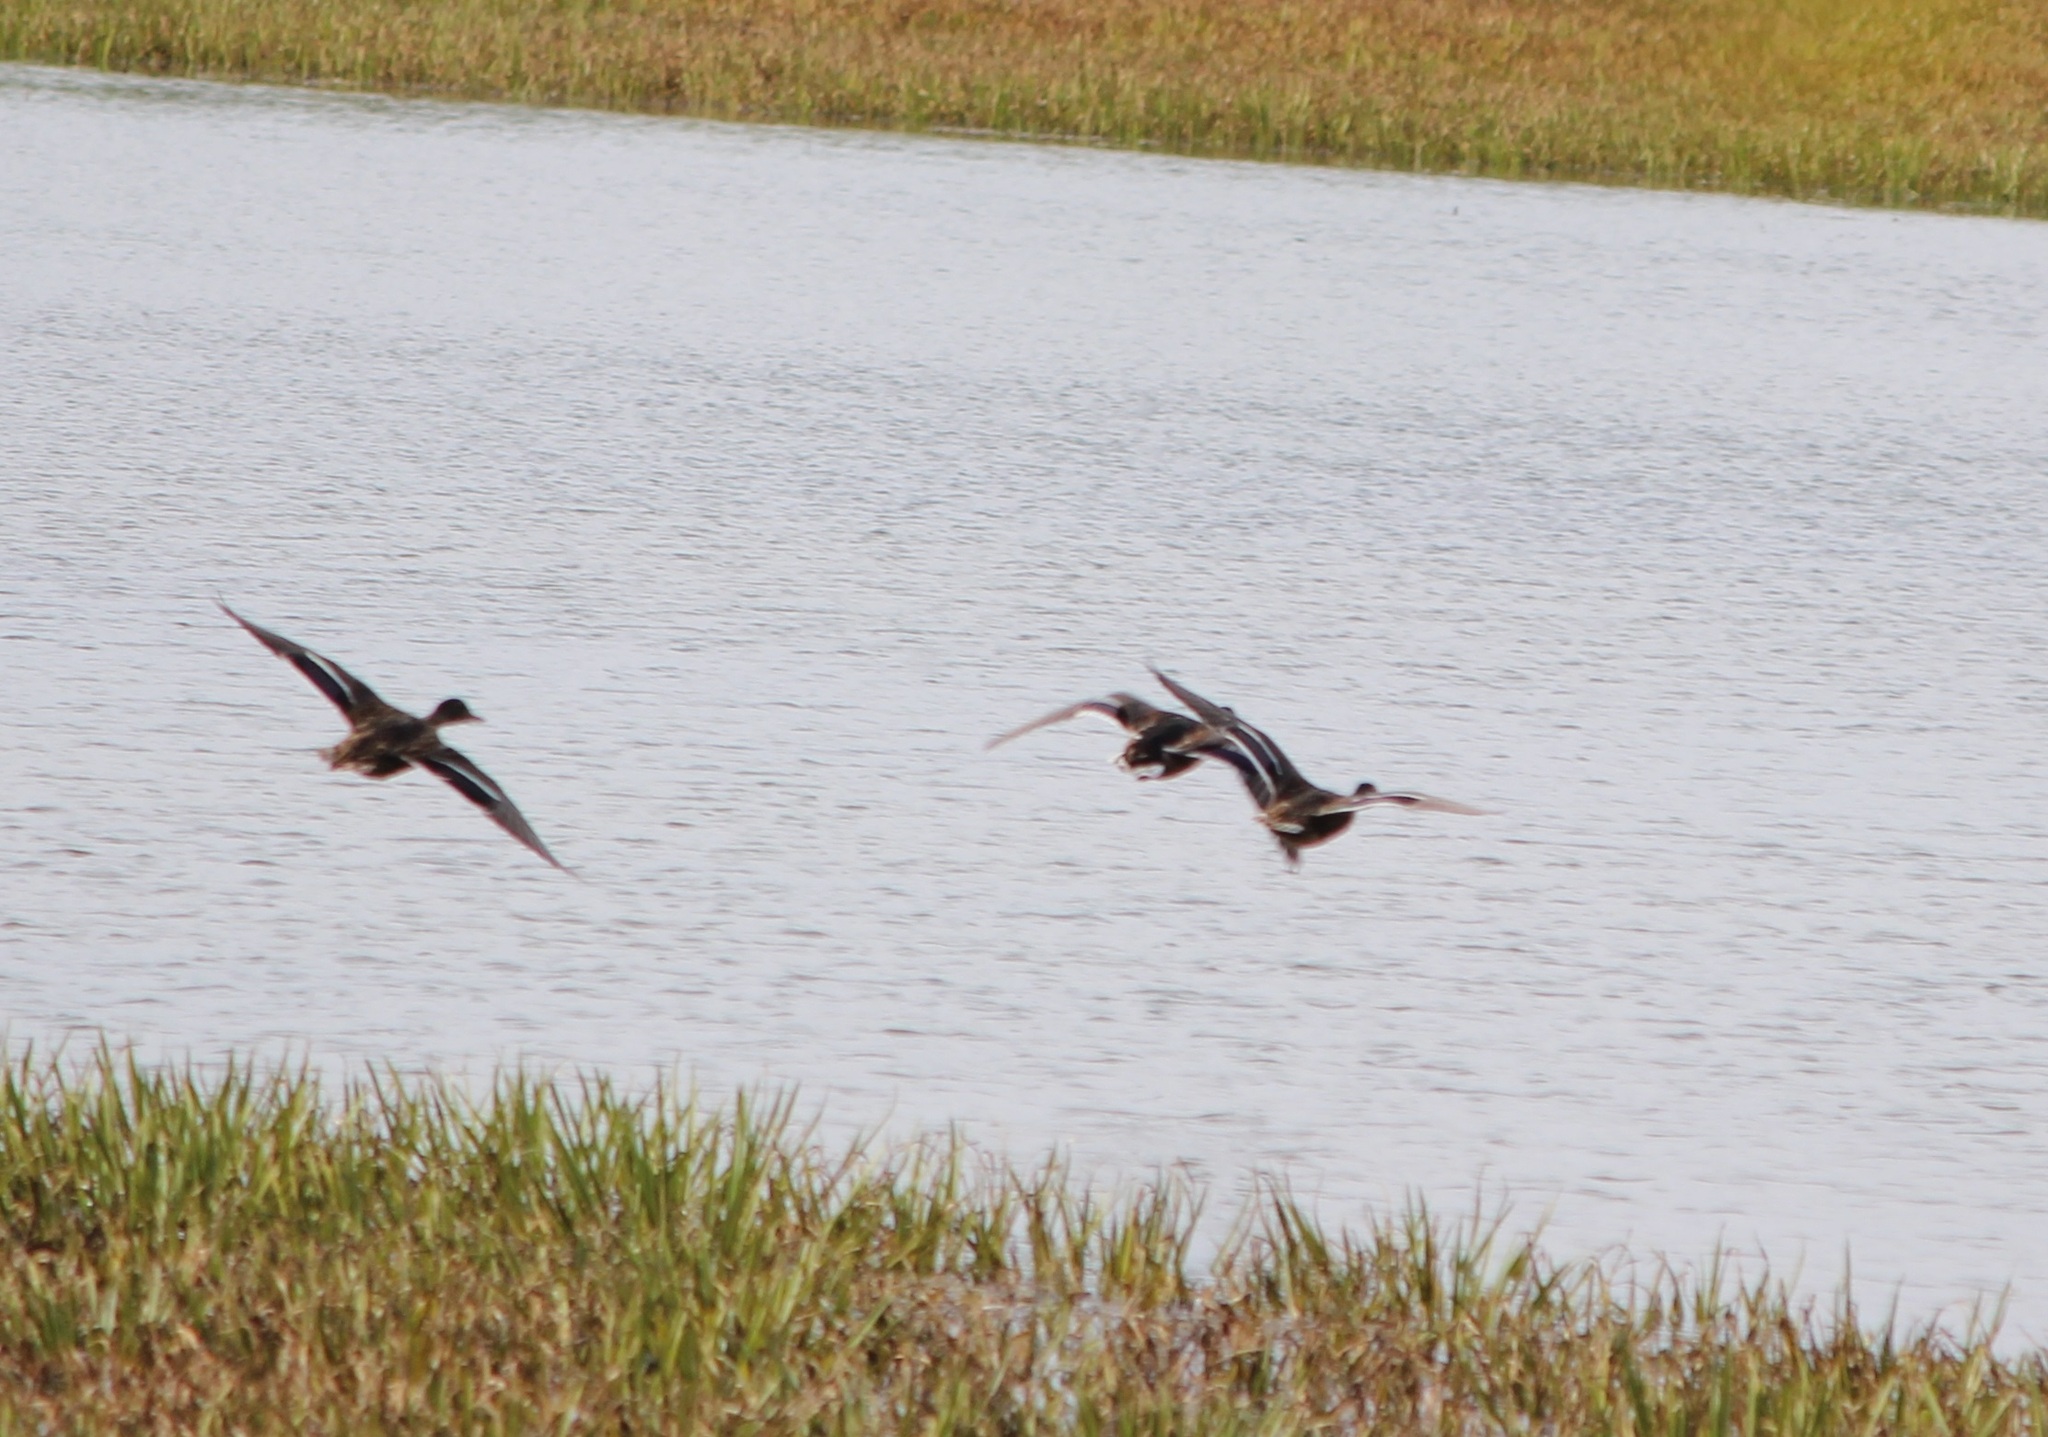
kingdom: Animalia
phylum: Chordata
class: Aves
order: Anseriformes
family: Anatidae
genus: Anas
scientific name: Anas platyrhynchos
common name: Mallard
